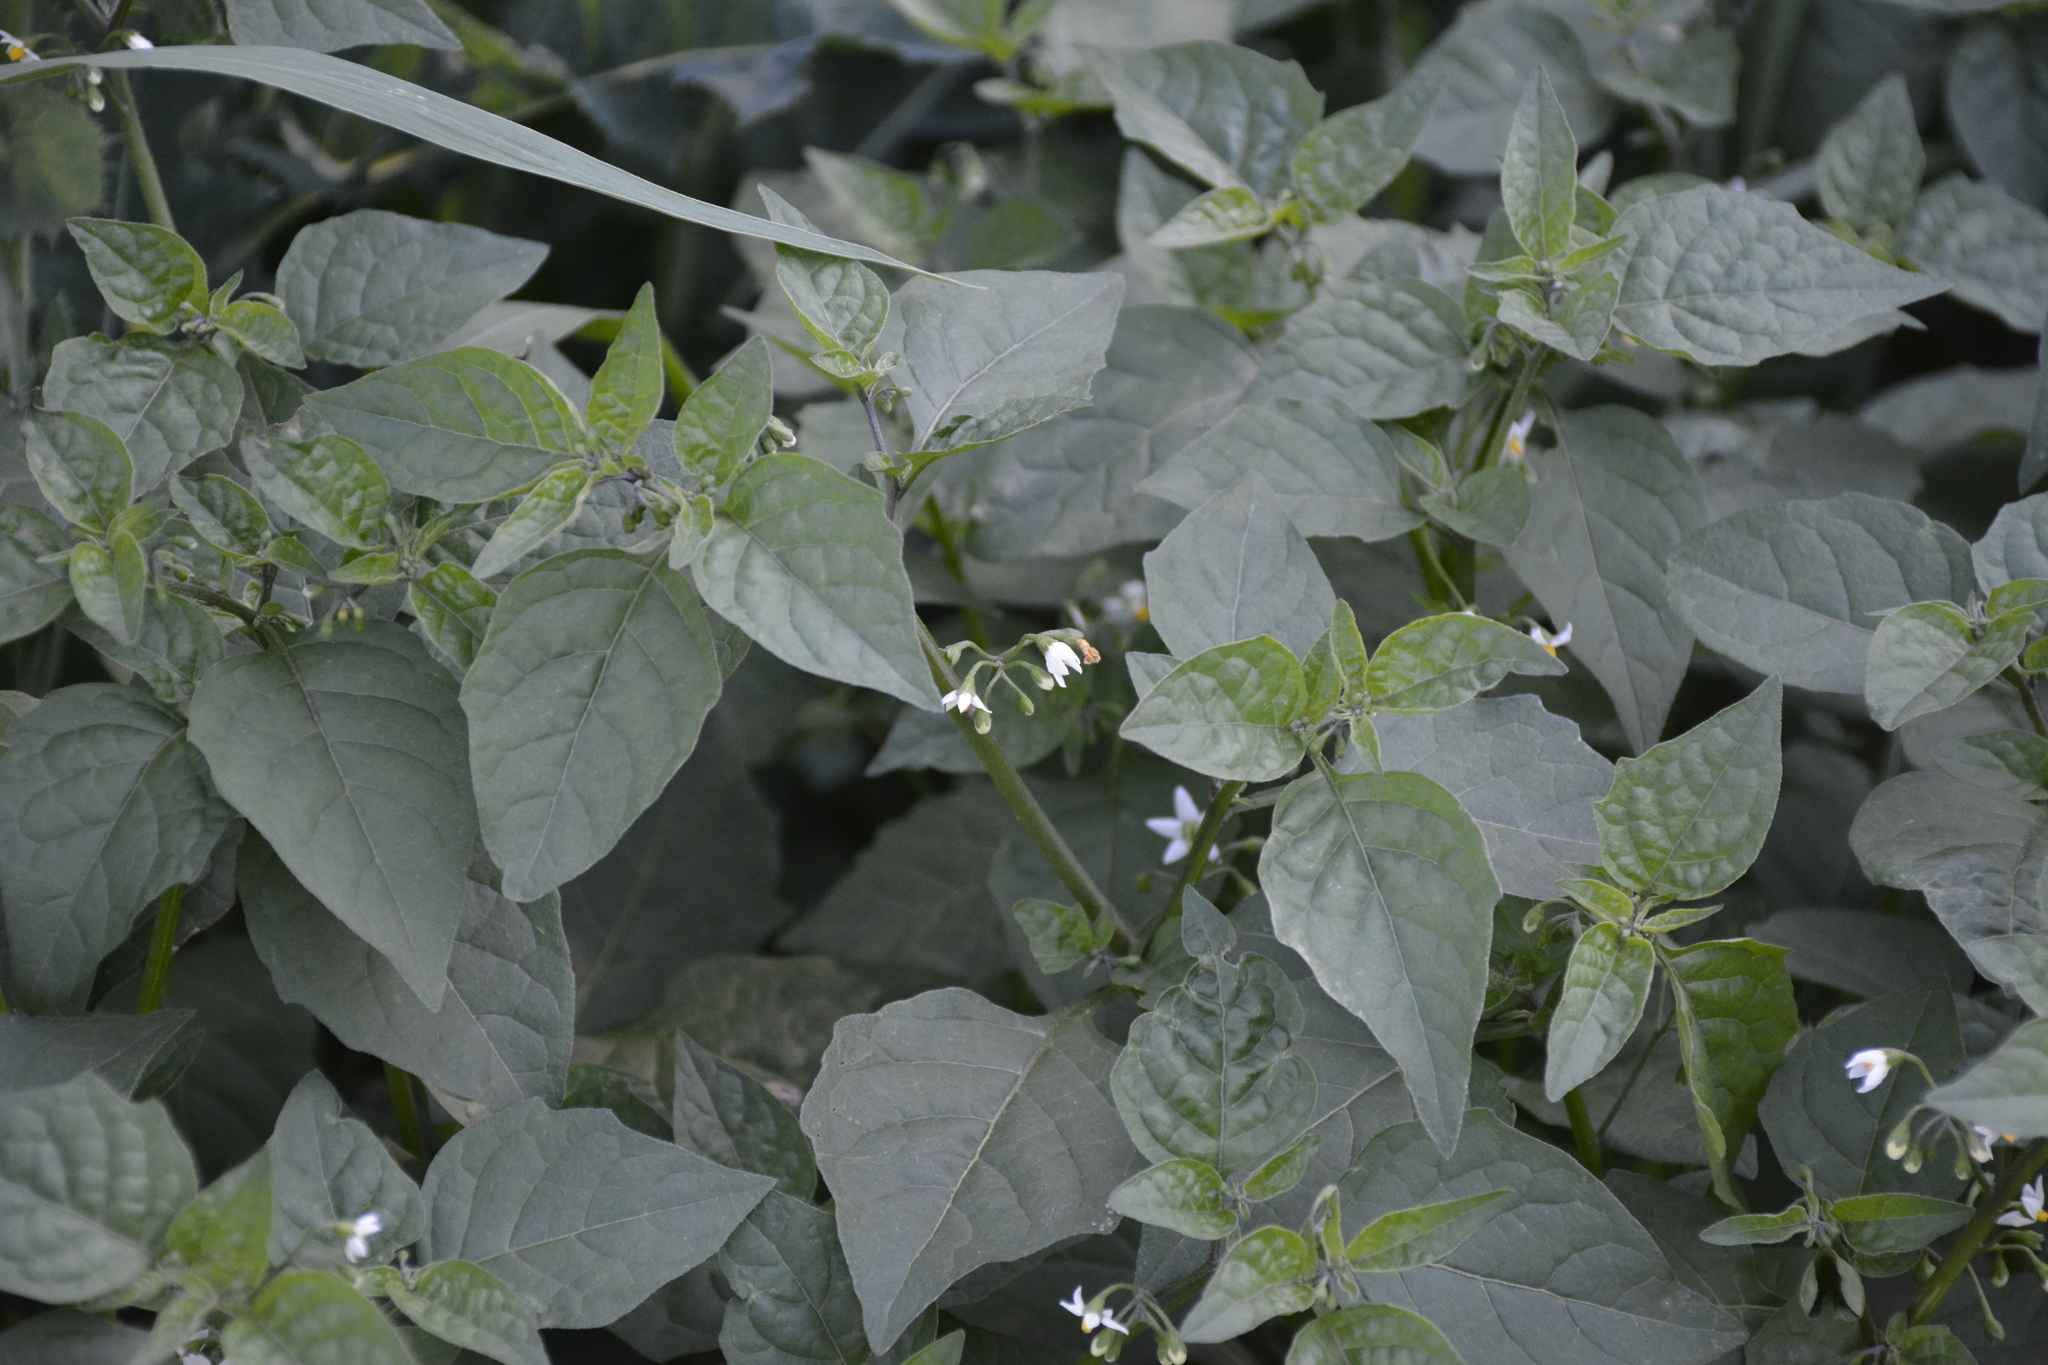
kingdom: Plantae
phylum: Tracheophyta
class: Magnoliopsida
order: Solanales
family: Solanaceae
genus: Solanum
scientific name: Solanum nigrum
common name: Black nightshade
